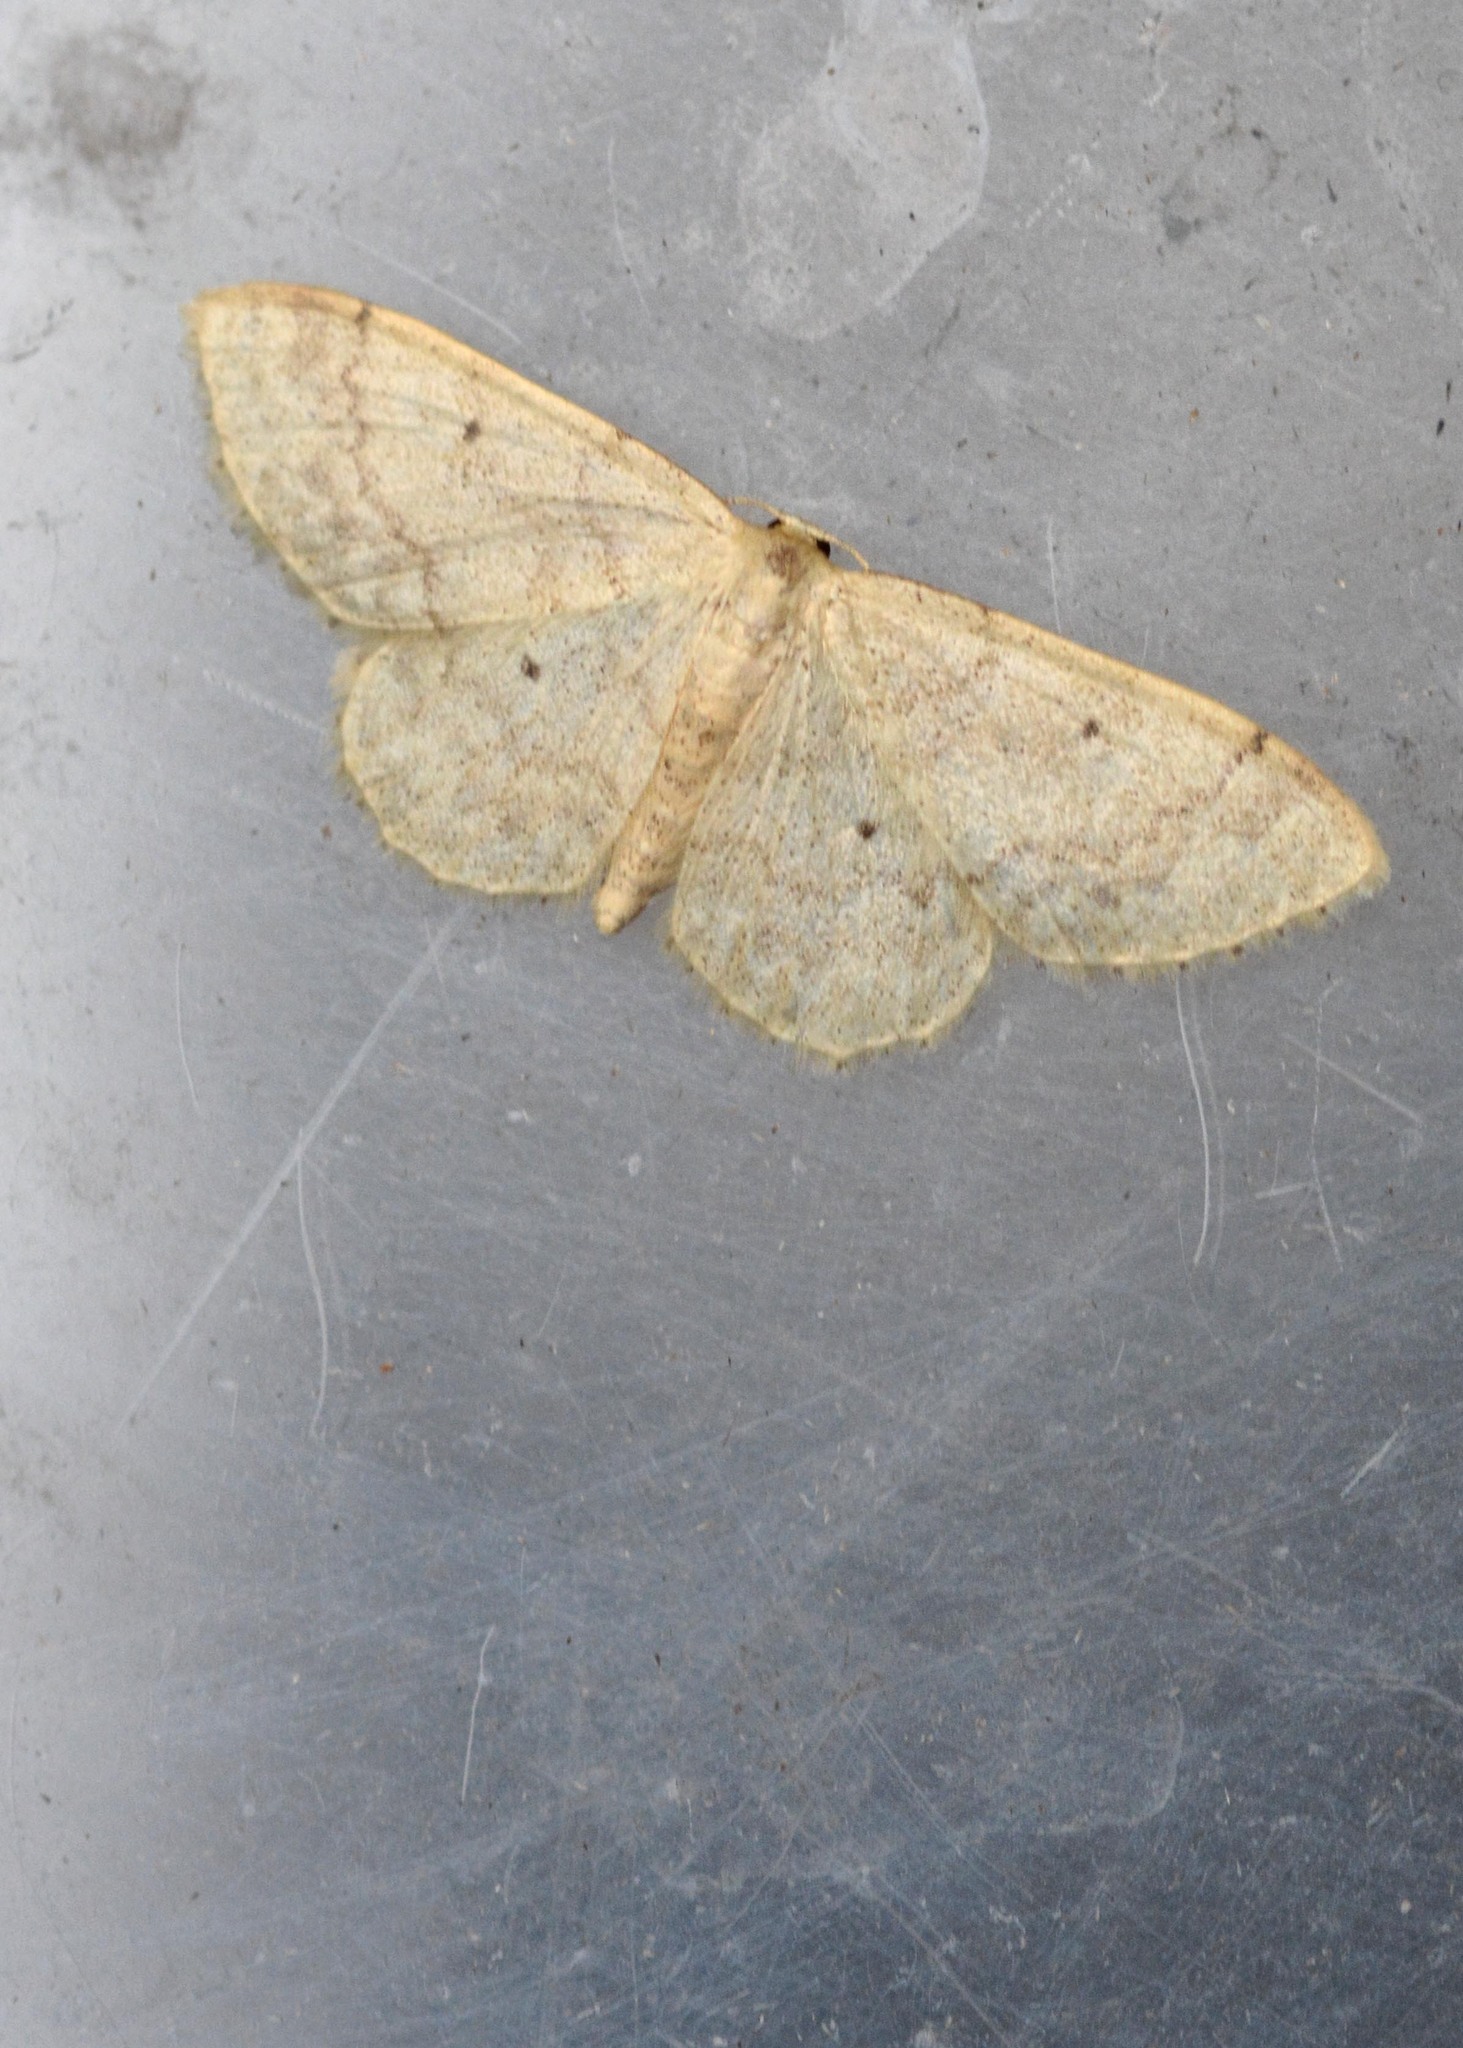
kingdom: Animalia
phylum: Arthropoda
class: Insecta
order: Lepidoptera
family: Geometridae
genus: Idaea
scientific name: Idaea fuscovenosa
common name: Dwarf cream wave
